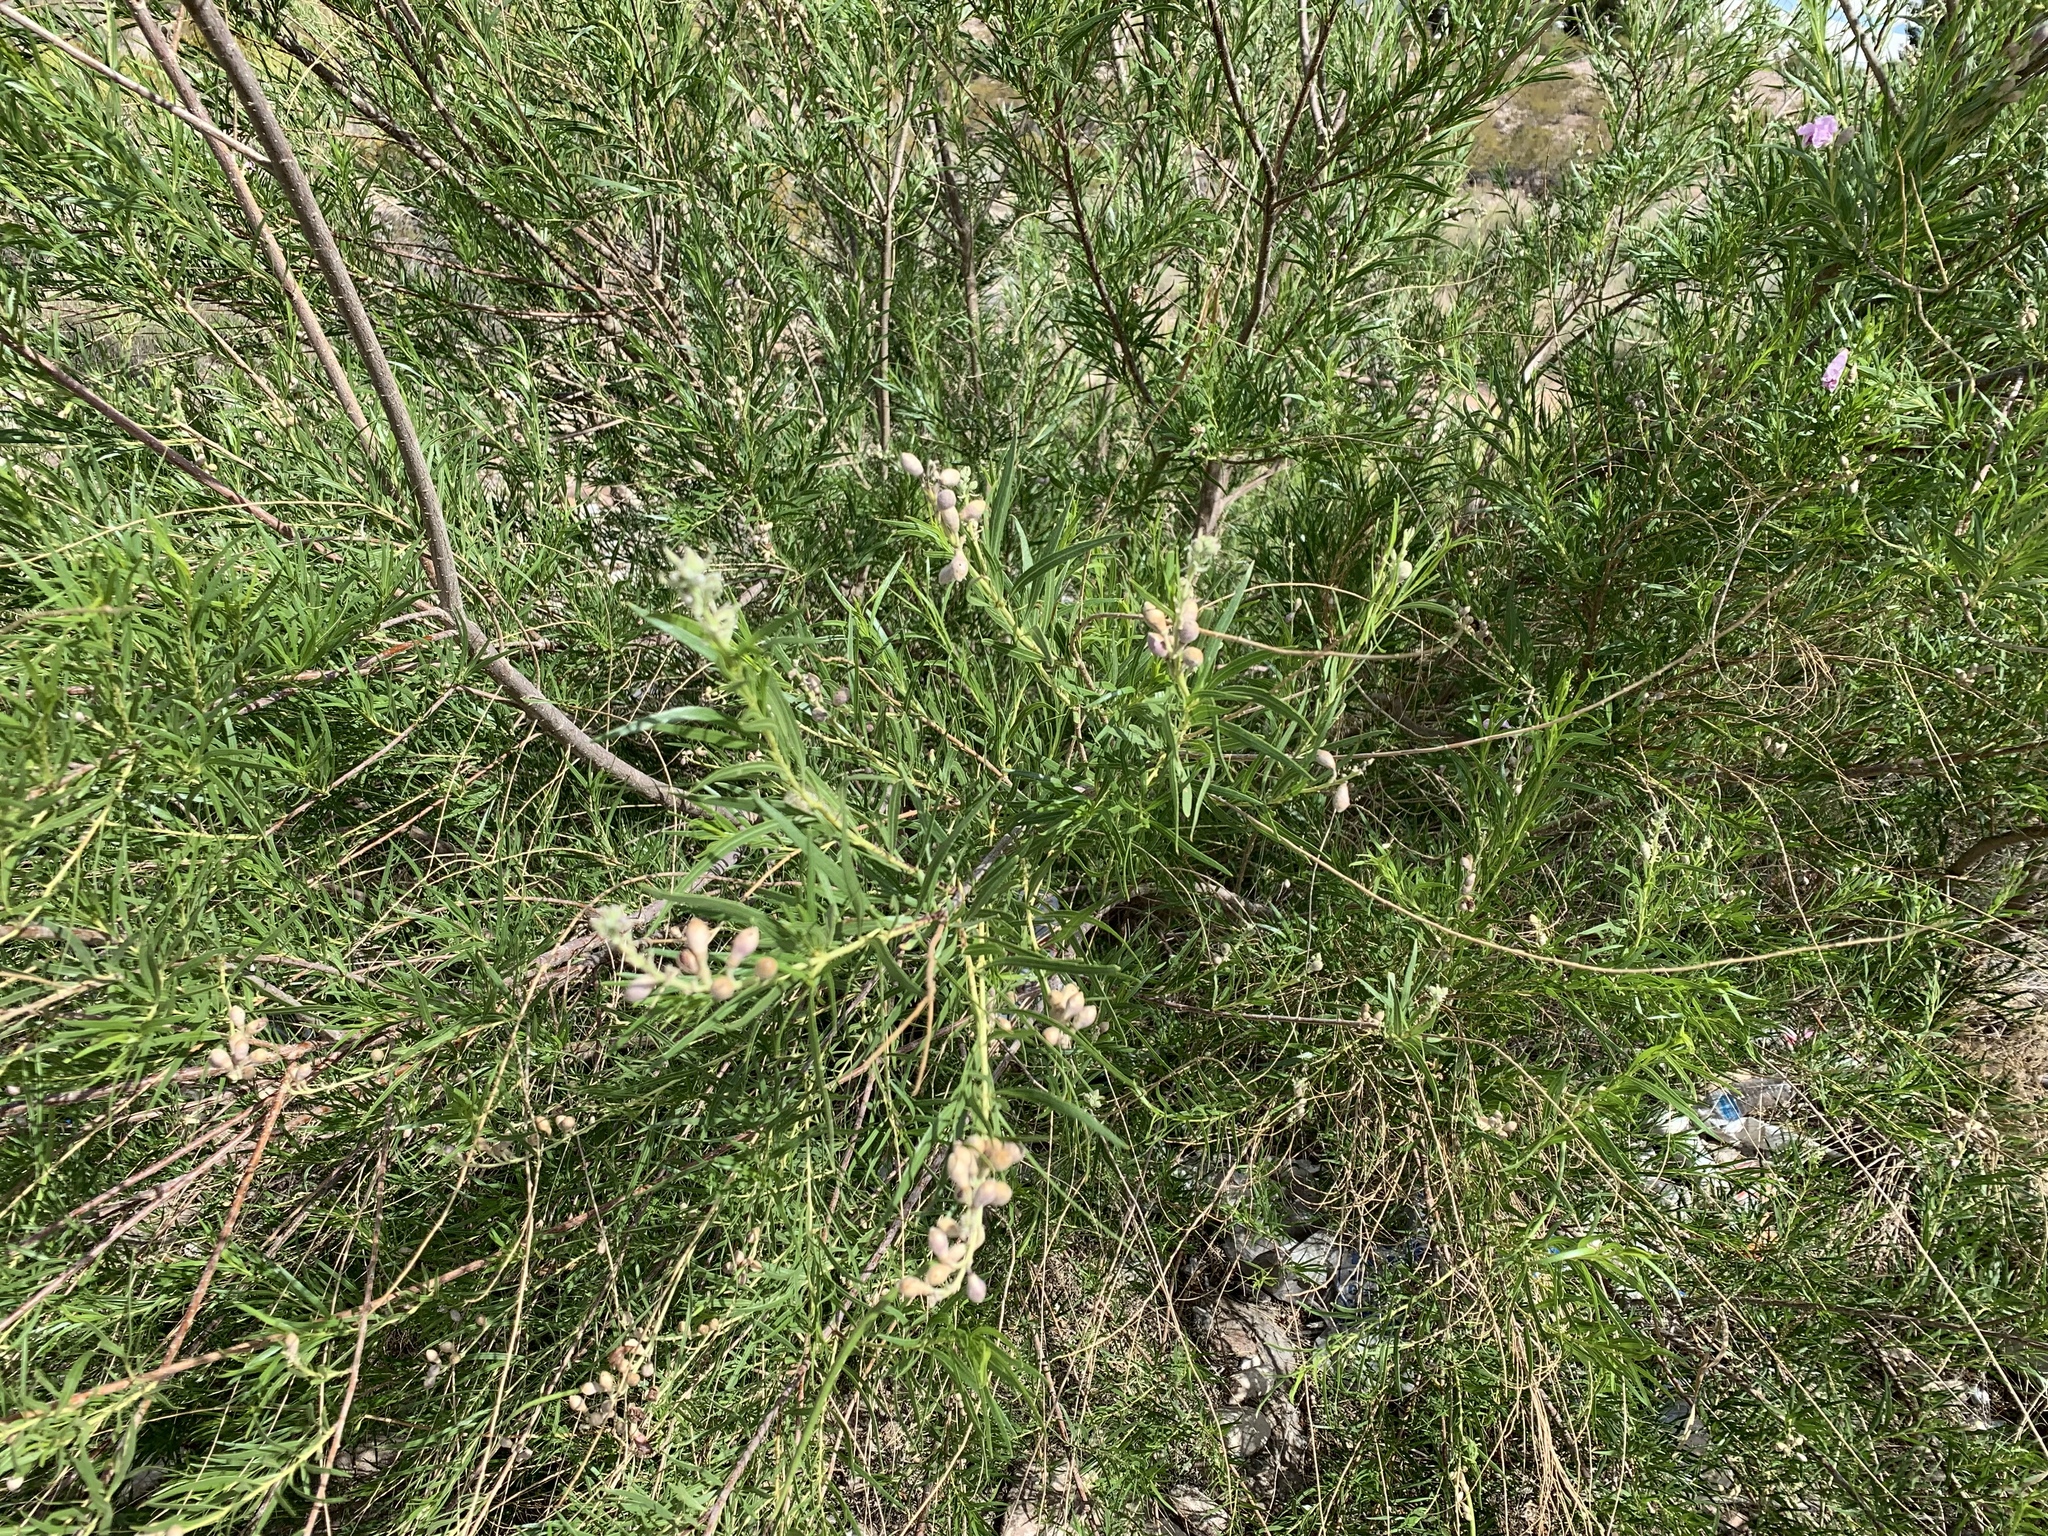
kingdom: Plantae
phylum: Tracheophyta
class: Magnoliopsida
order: Lamiales
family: Bignoniaceae
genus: Chilopsis
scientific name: Chilopsis linearis
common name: Desert-willow
